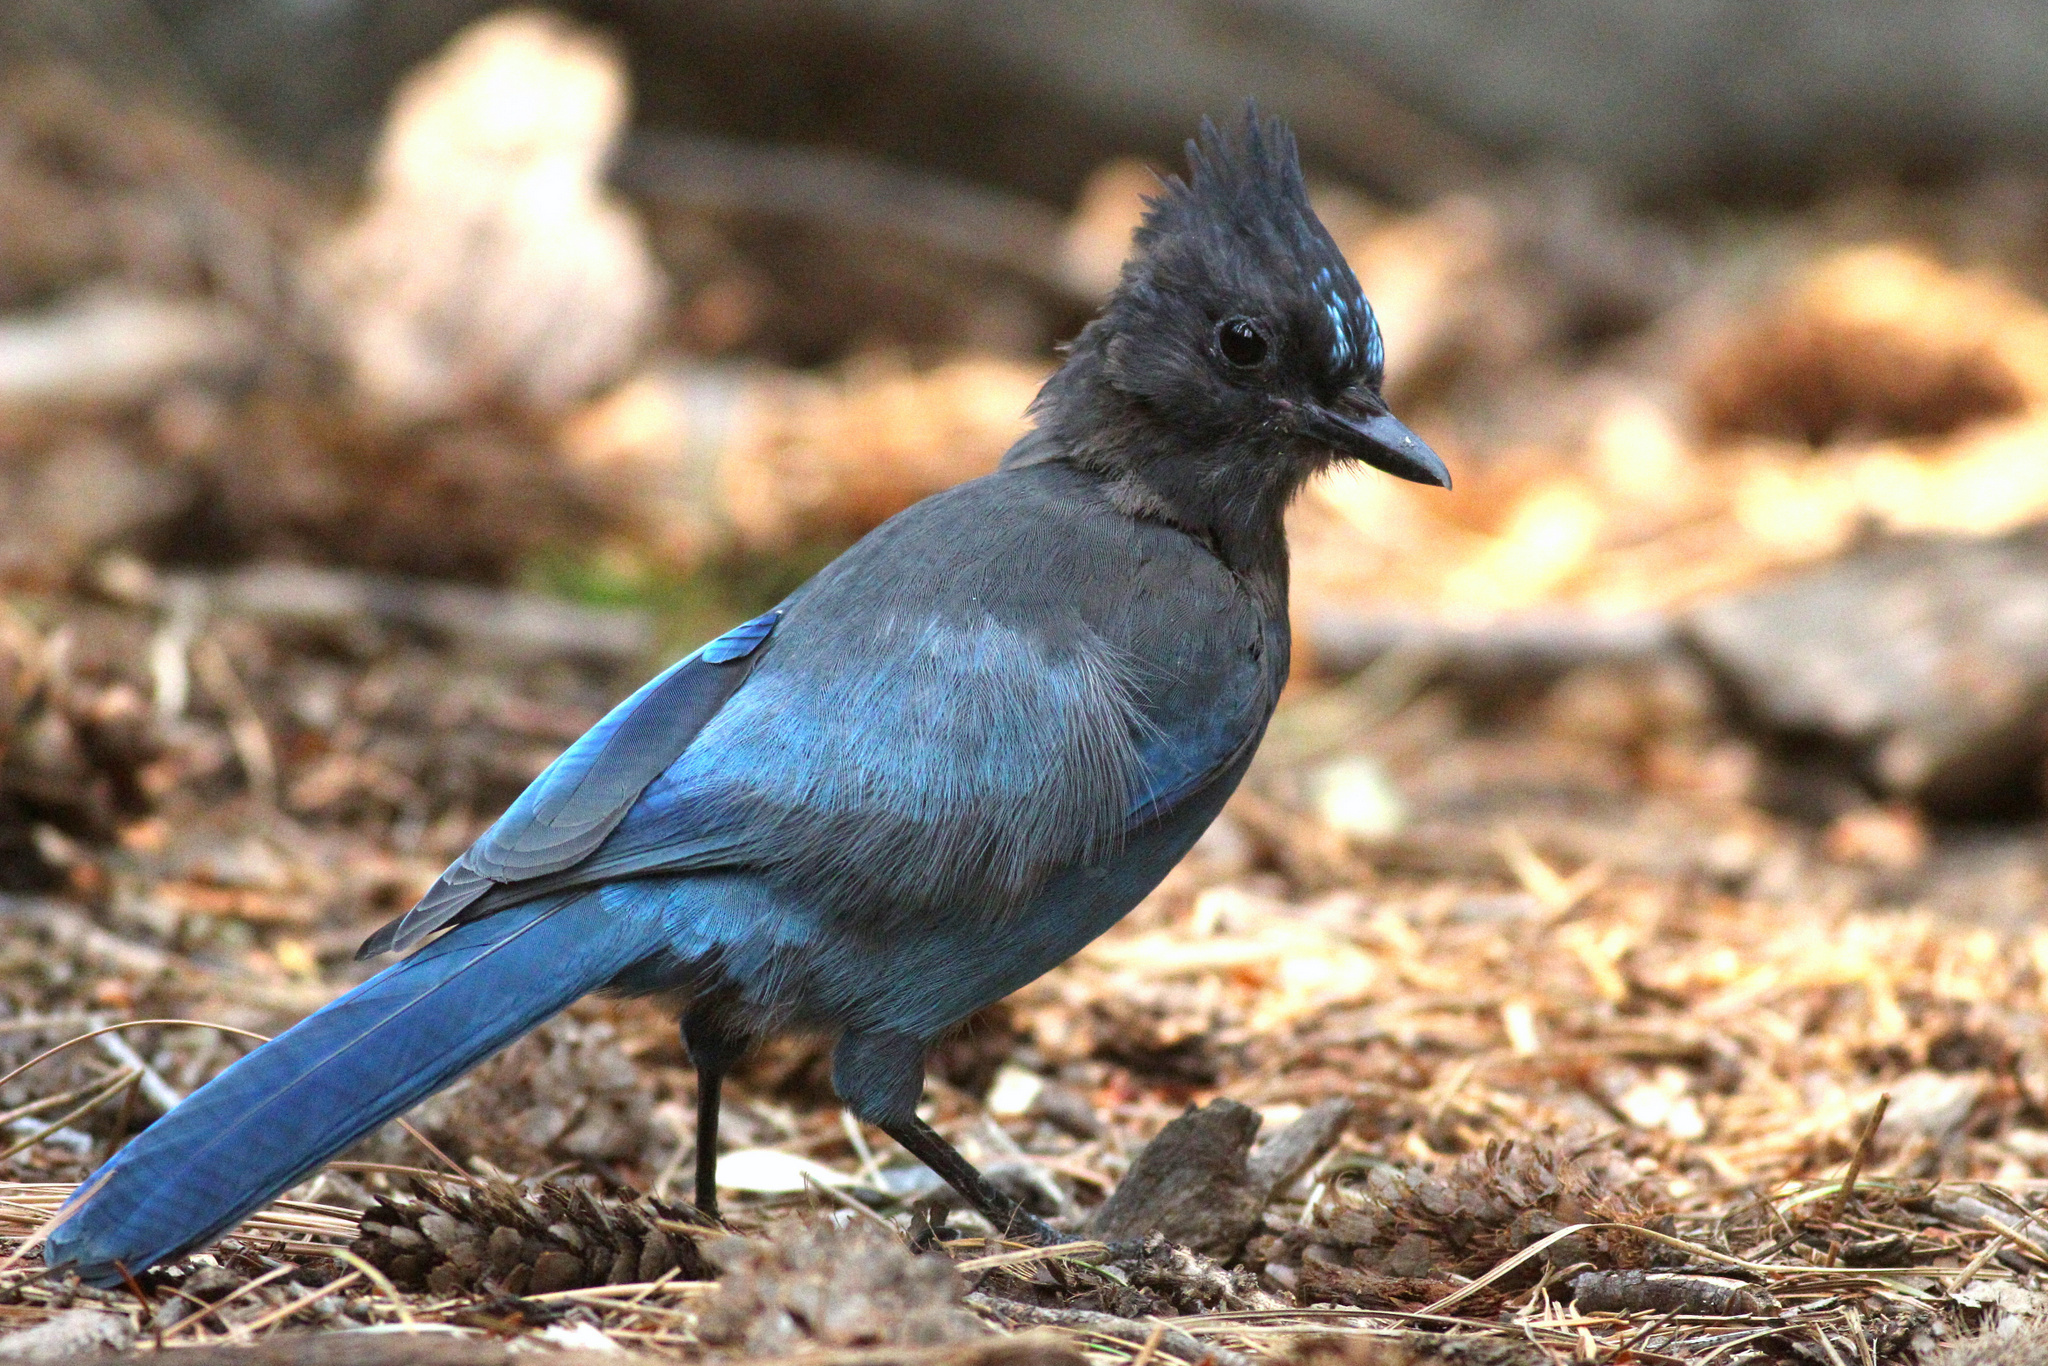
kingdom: Animalia
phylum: Chordata
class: Aves
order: Passeriformes
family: Corvidae
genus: Cyanocitta
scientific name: Cyanocitta stelleri
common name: Steller's jay
